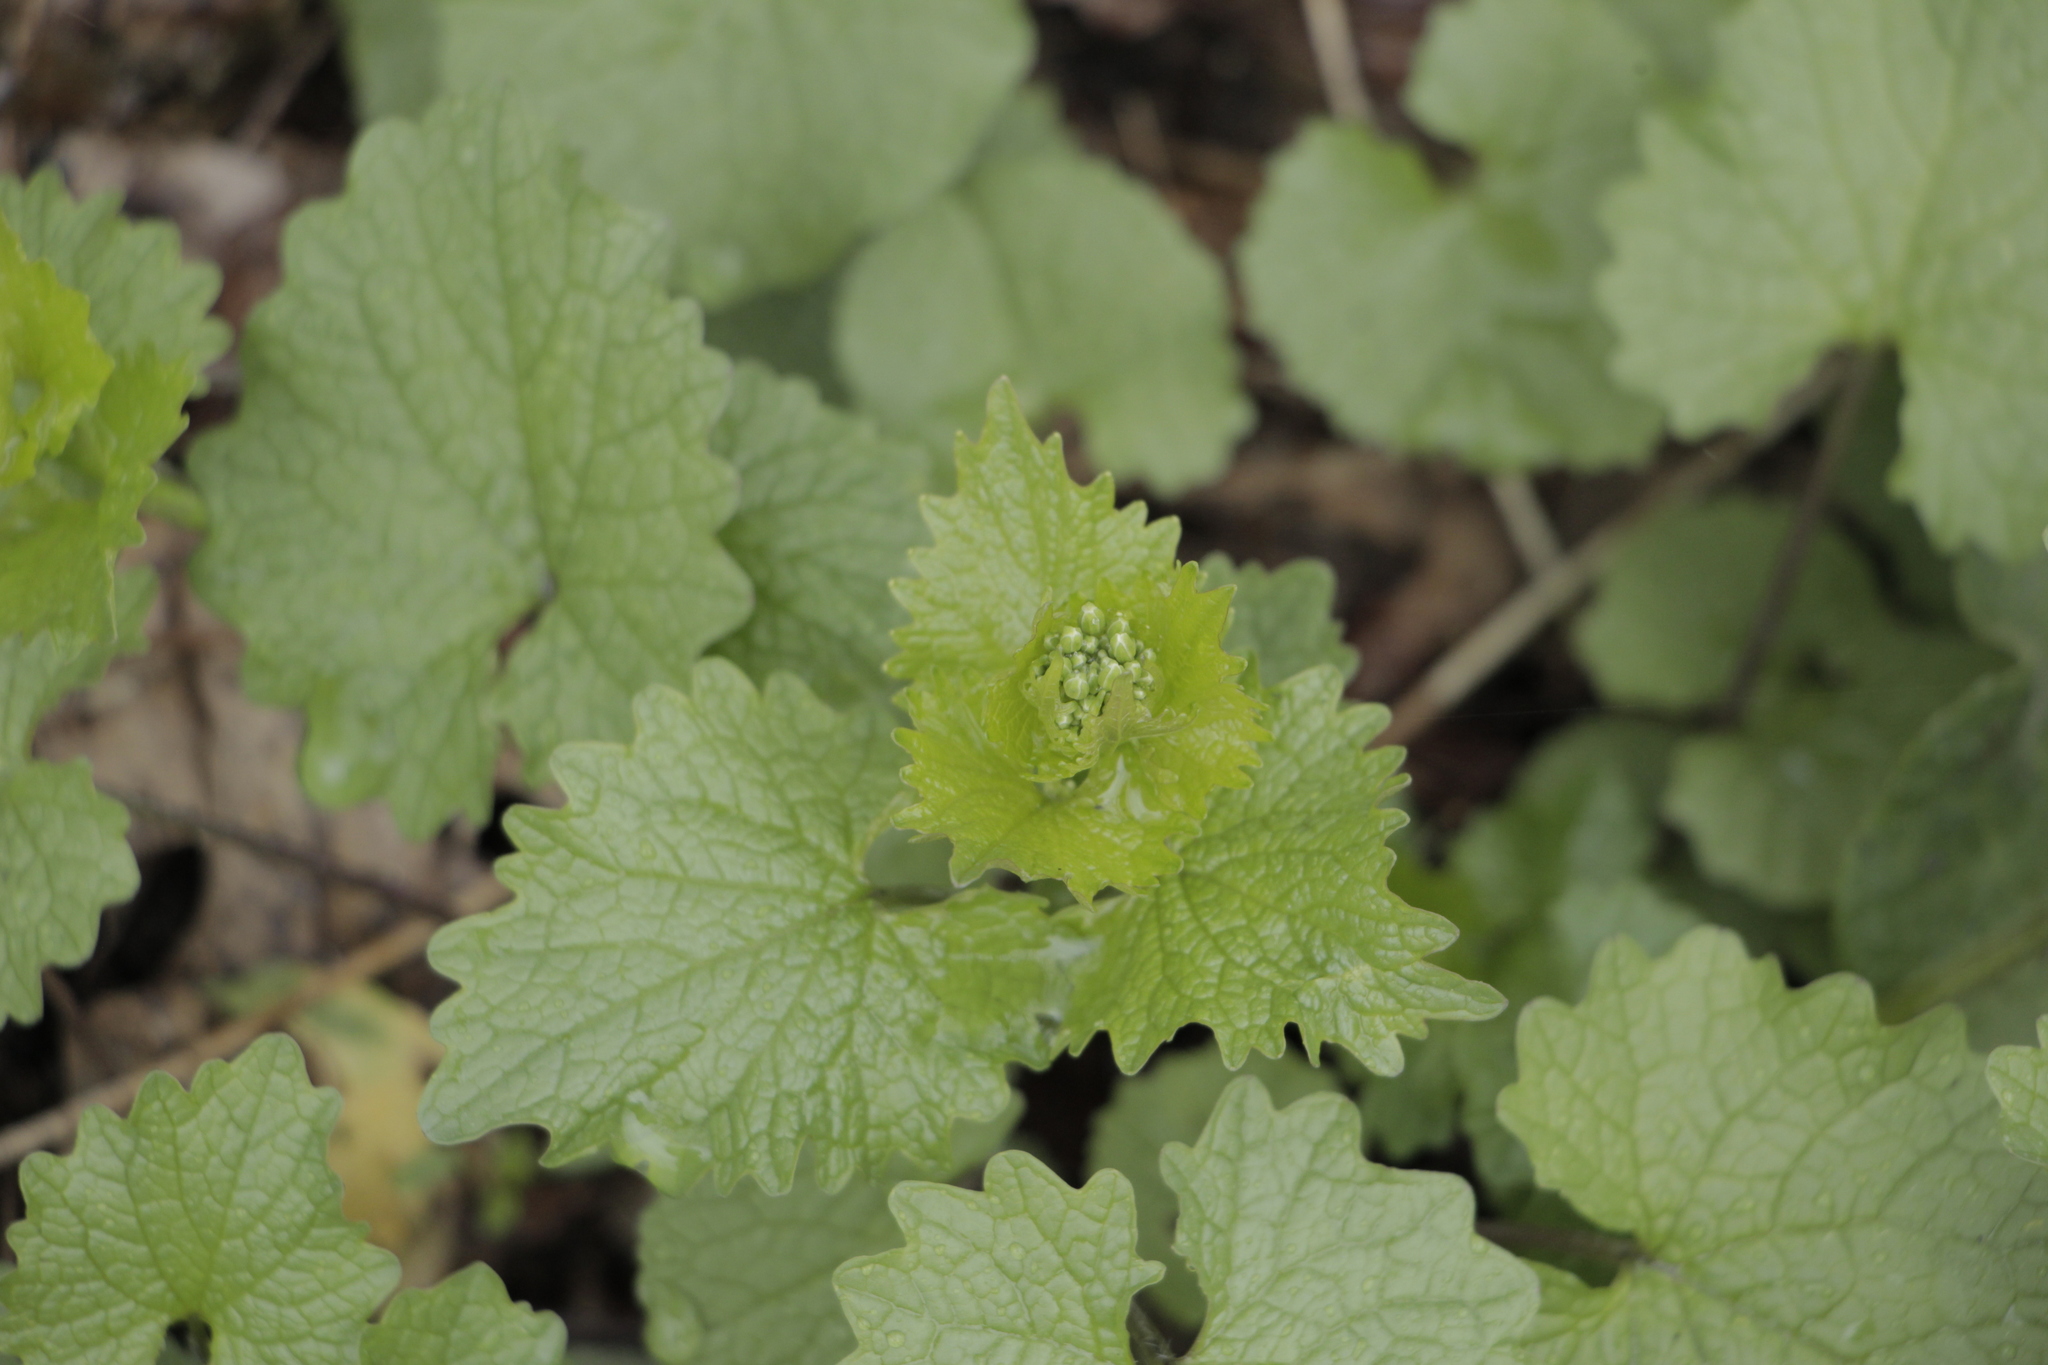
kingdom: Plantae
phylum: Tracheophyta
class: Magnoliopsida
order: Brassicales
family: Brassicaceae
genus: Alliaria
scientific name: Alliaria petiolata
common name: Garlic mustard
